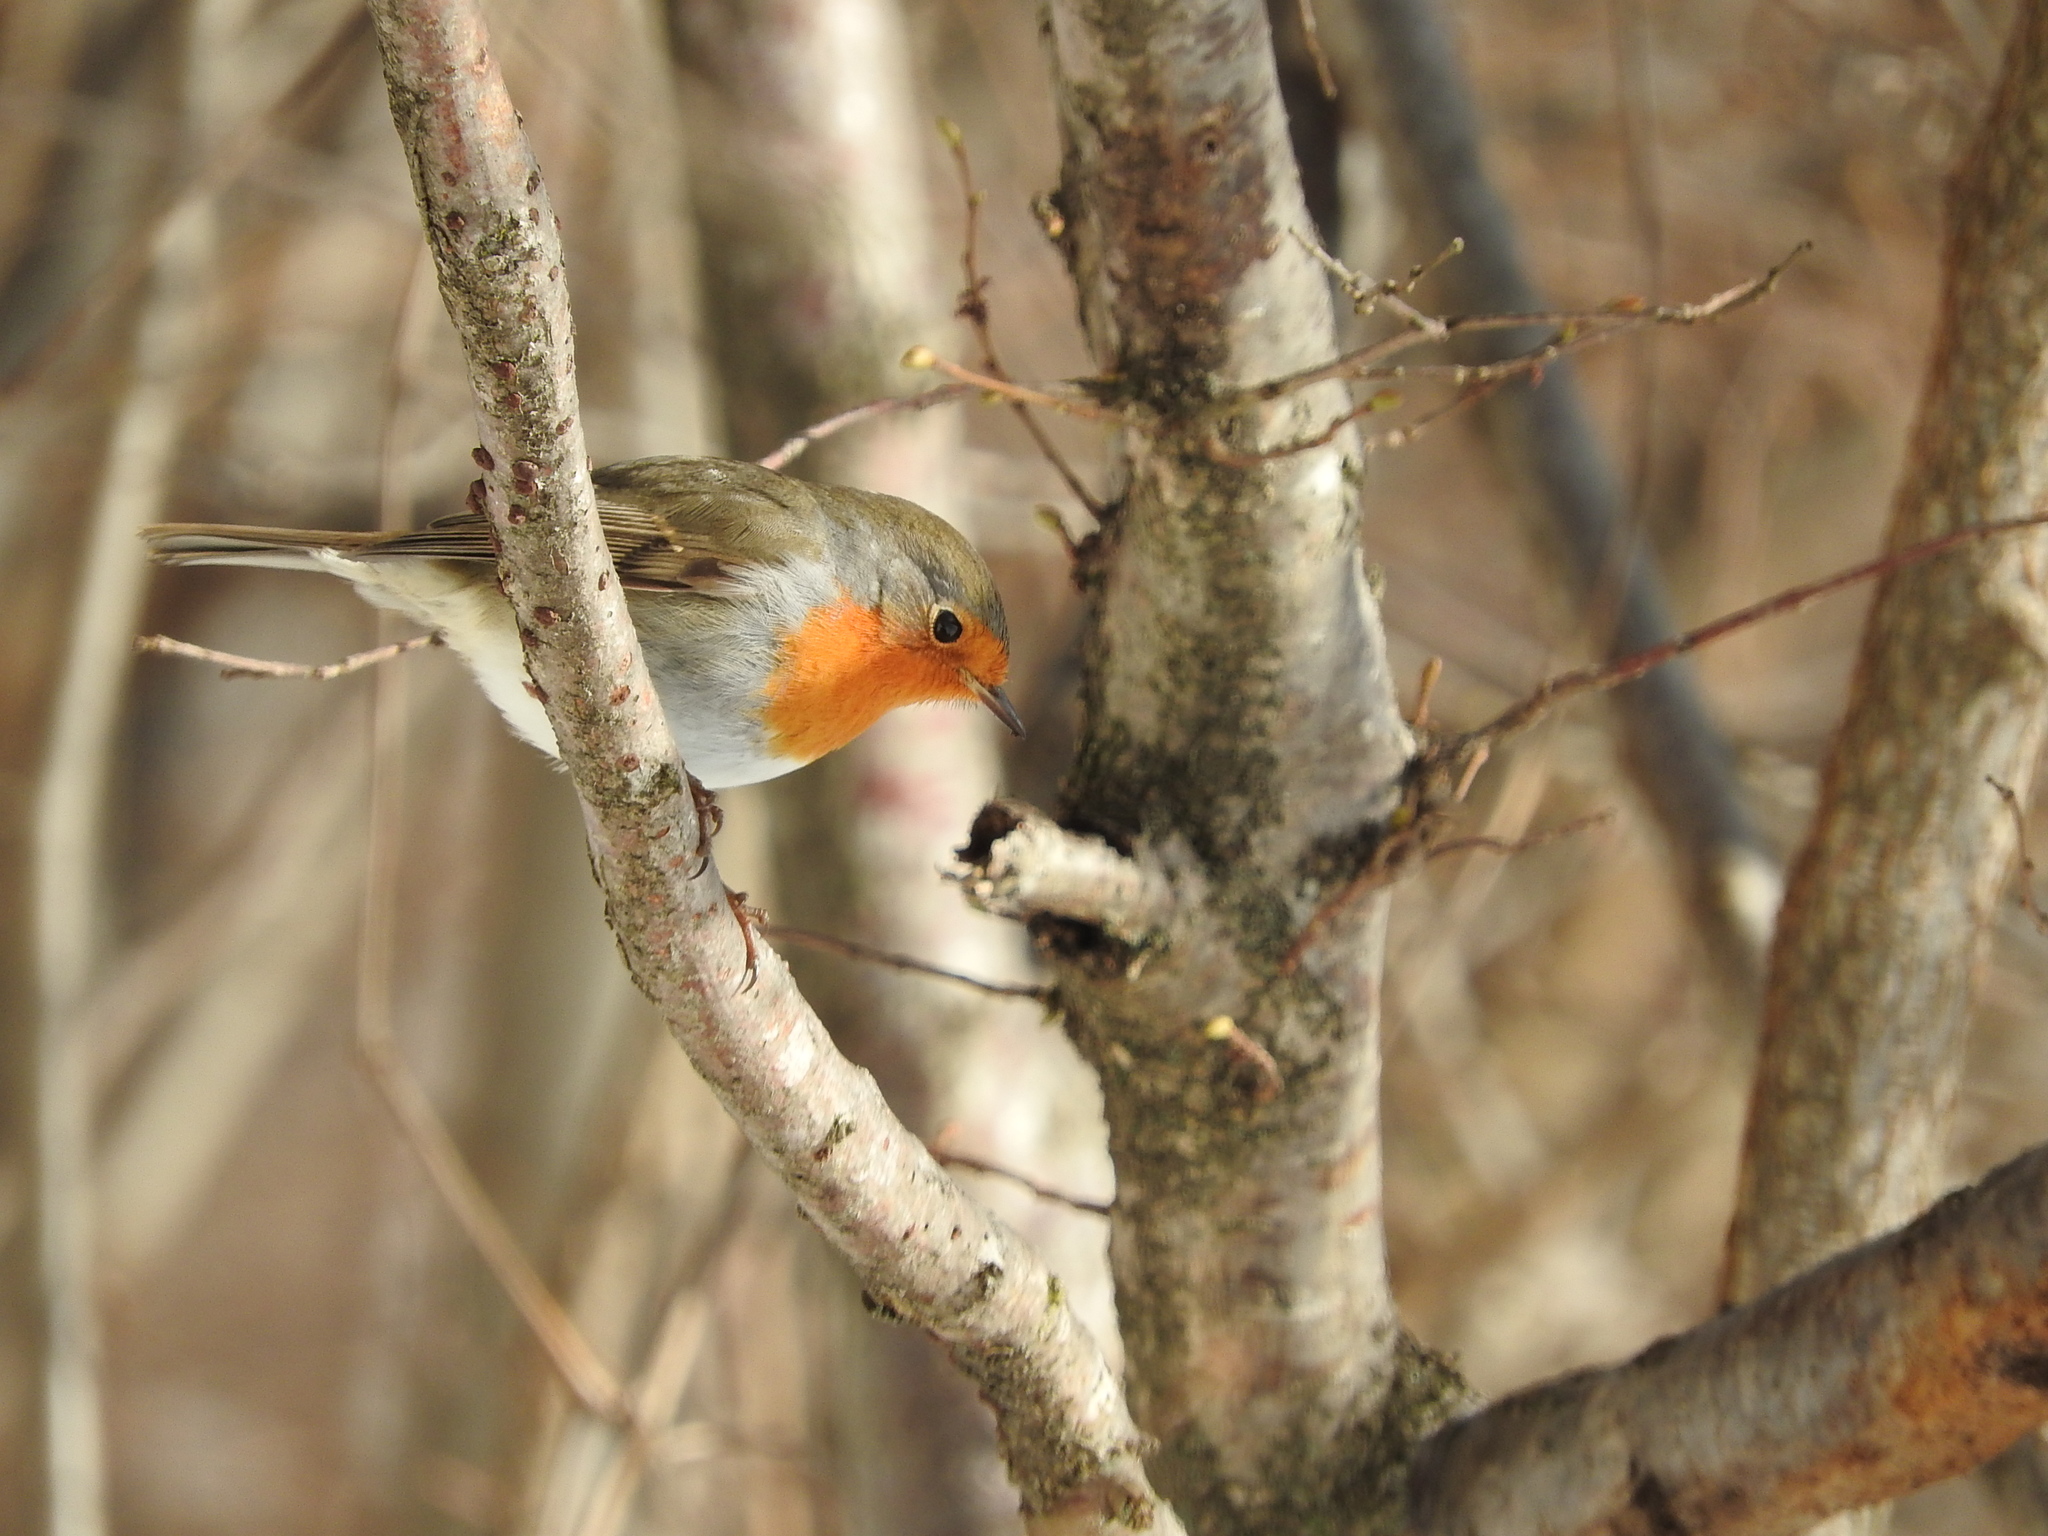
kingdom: Animalia
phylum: Chordata
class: Aves
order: Passeriformes
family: Muscicapidae
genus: Erithacus
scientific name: Erithacus rubecula
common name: European robin
